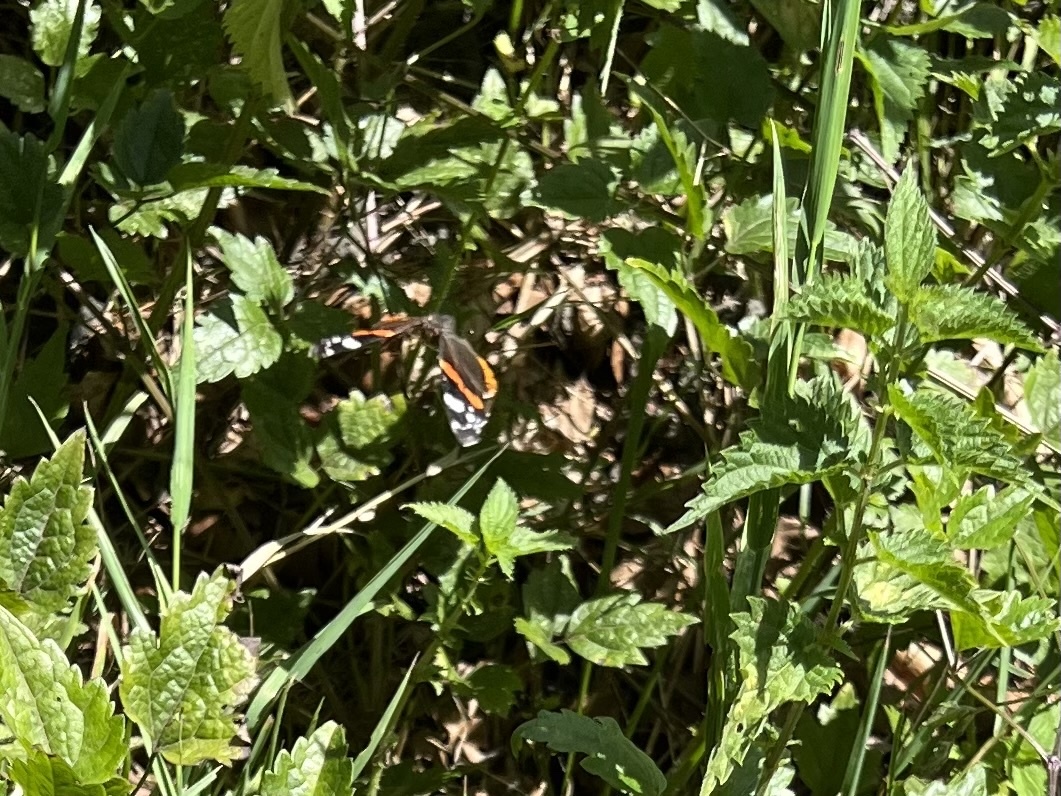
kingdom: Animalia
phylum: Arthropoda
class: Insecta
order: Lepidoptera
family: Nymphalidae
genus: Vanessa
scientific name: Vanessa atalanta
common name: Red admiral
